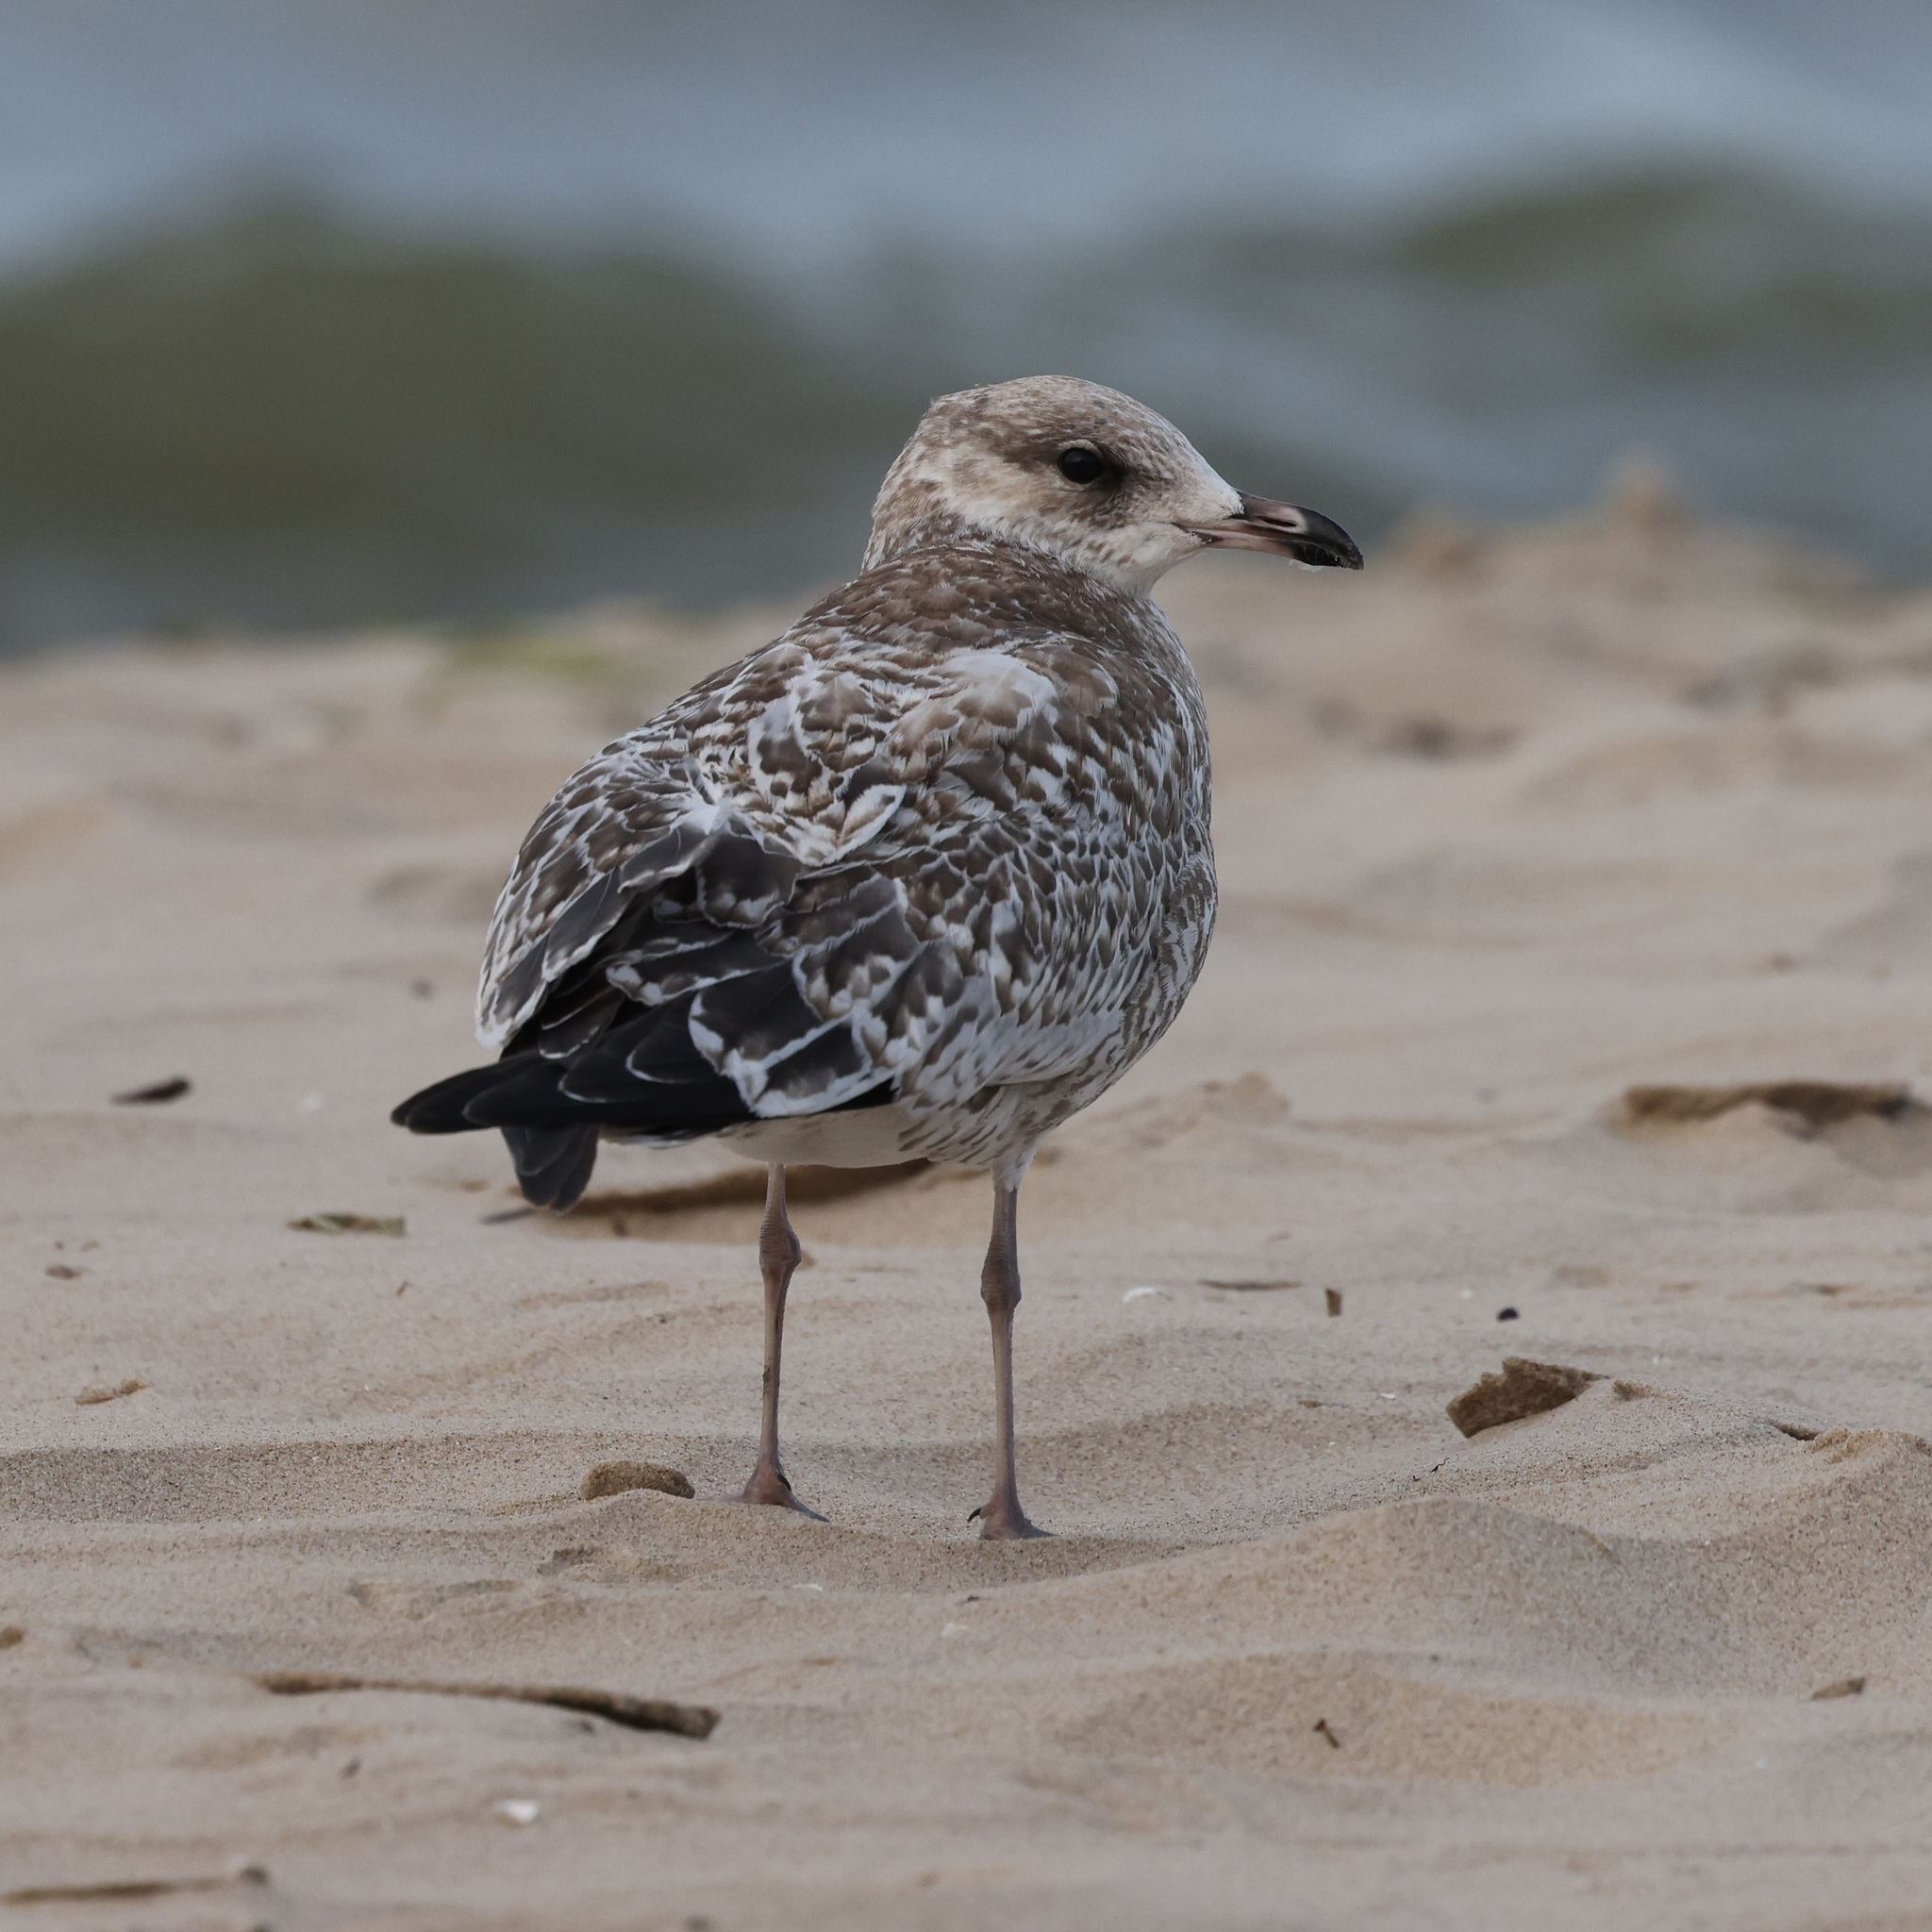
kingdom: Animalia
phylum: Chordata
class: Aves
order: Charadriiformes
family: Laridae
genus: Larus
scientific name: Larus argentatus
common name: Herring gull
